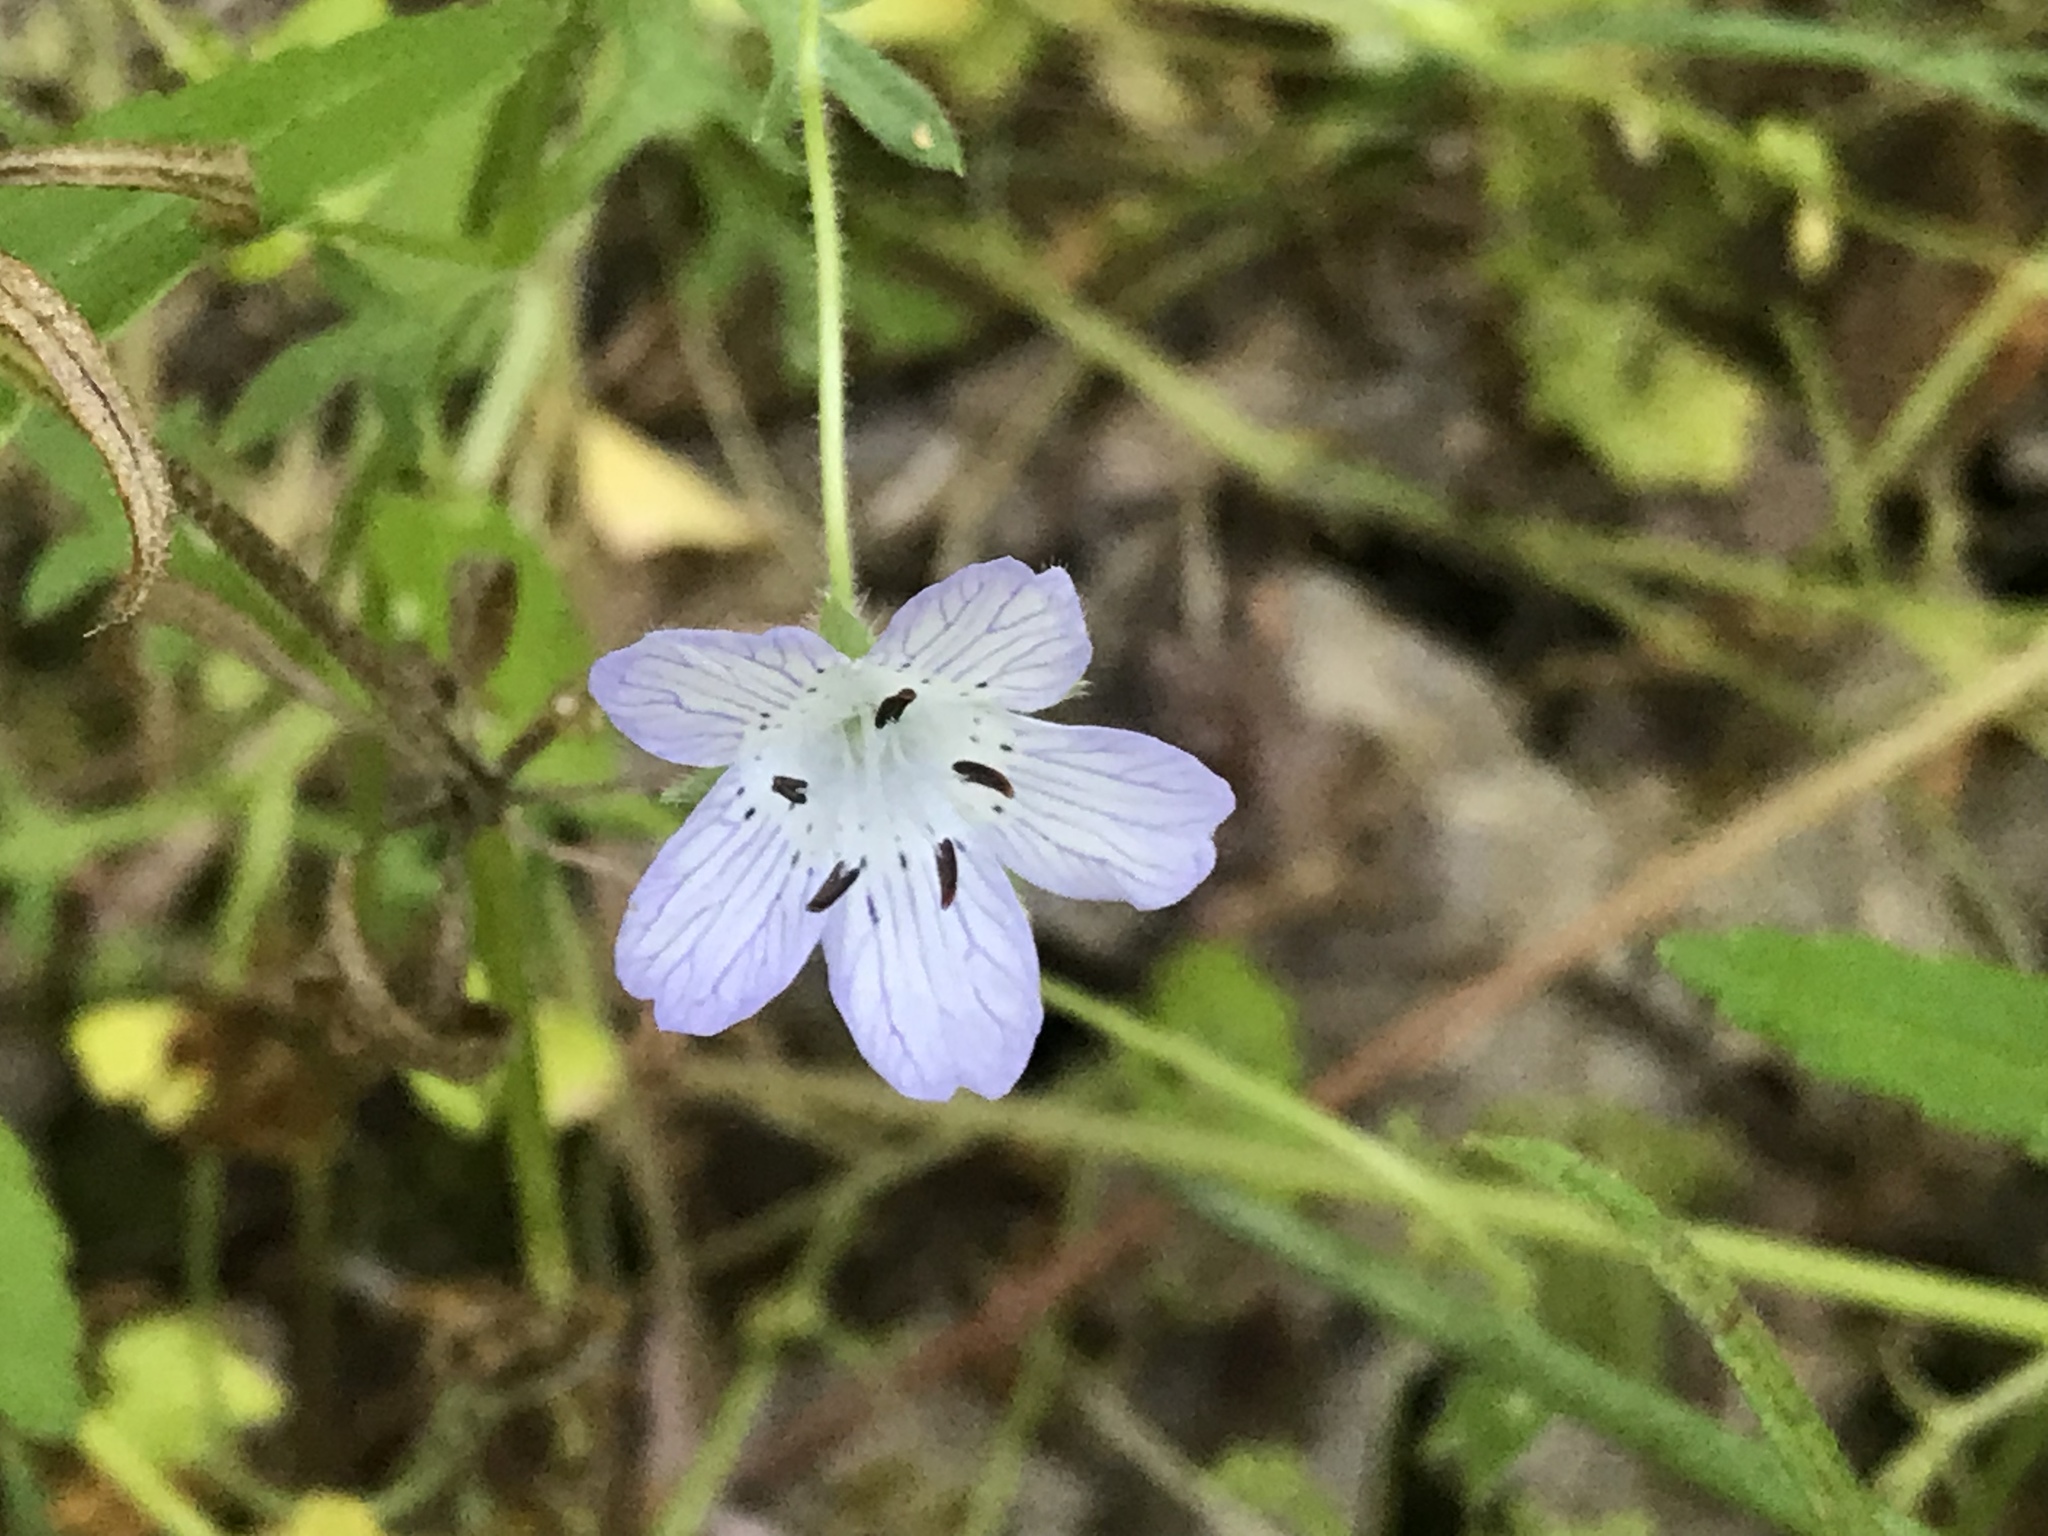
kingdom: Plantae
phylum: Tracheophyta
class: Magnoliopsida
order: Boraginales
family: Hydrophyllaceae
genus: Nemophila
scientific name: Nemophila menziesii
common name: Baby's-blue-eyes
